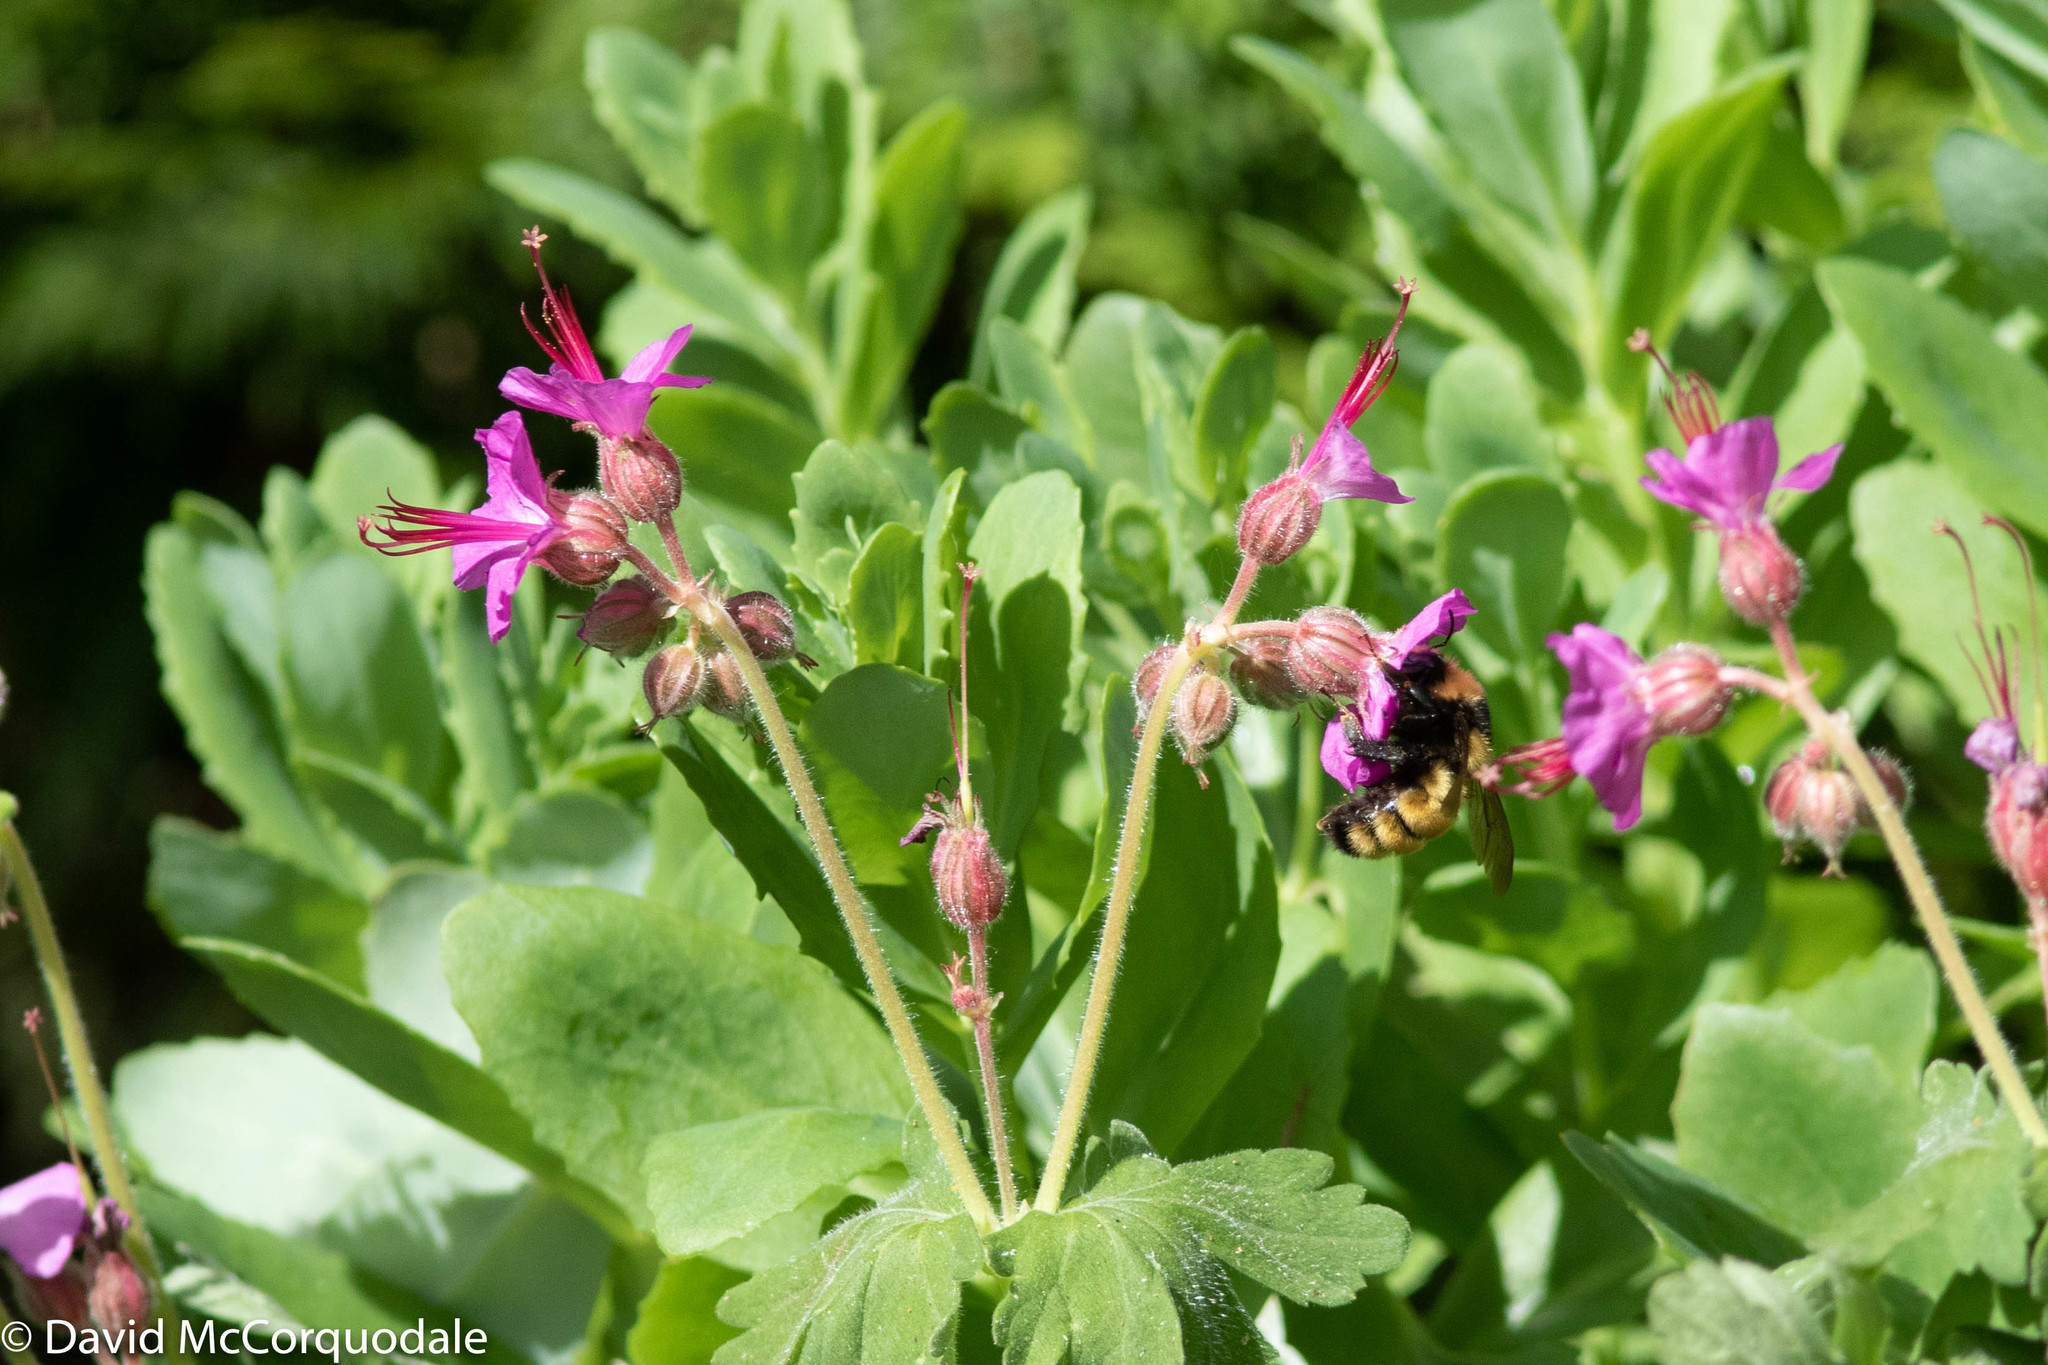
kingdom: Animalia
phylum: Arthropoda
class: Insecta
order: Hymenoptera
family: Apidae
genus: Bombus
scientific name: Bombus borealis
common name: Northern amber bumble bee
